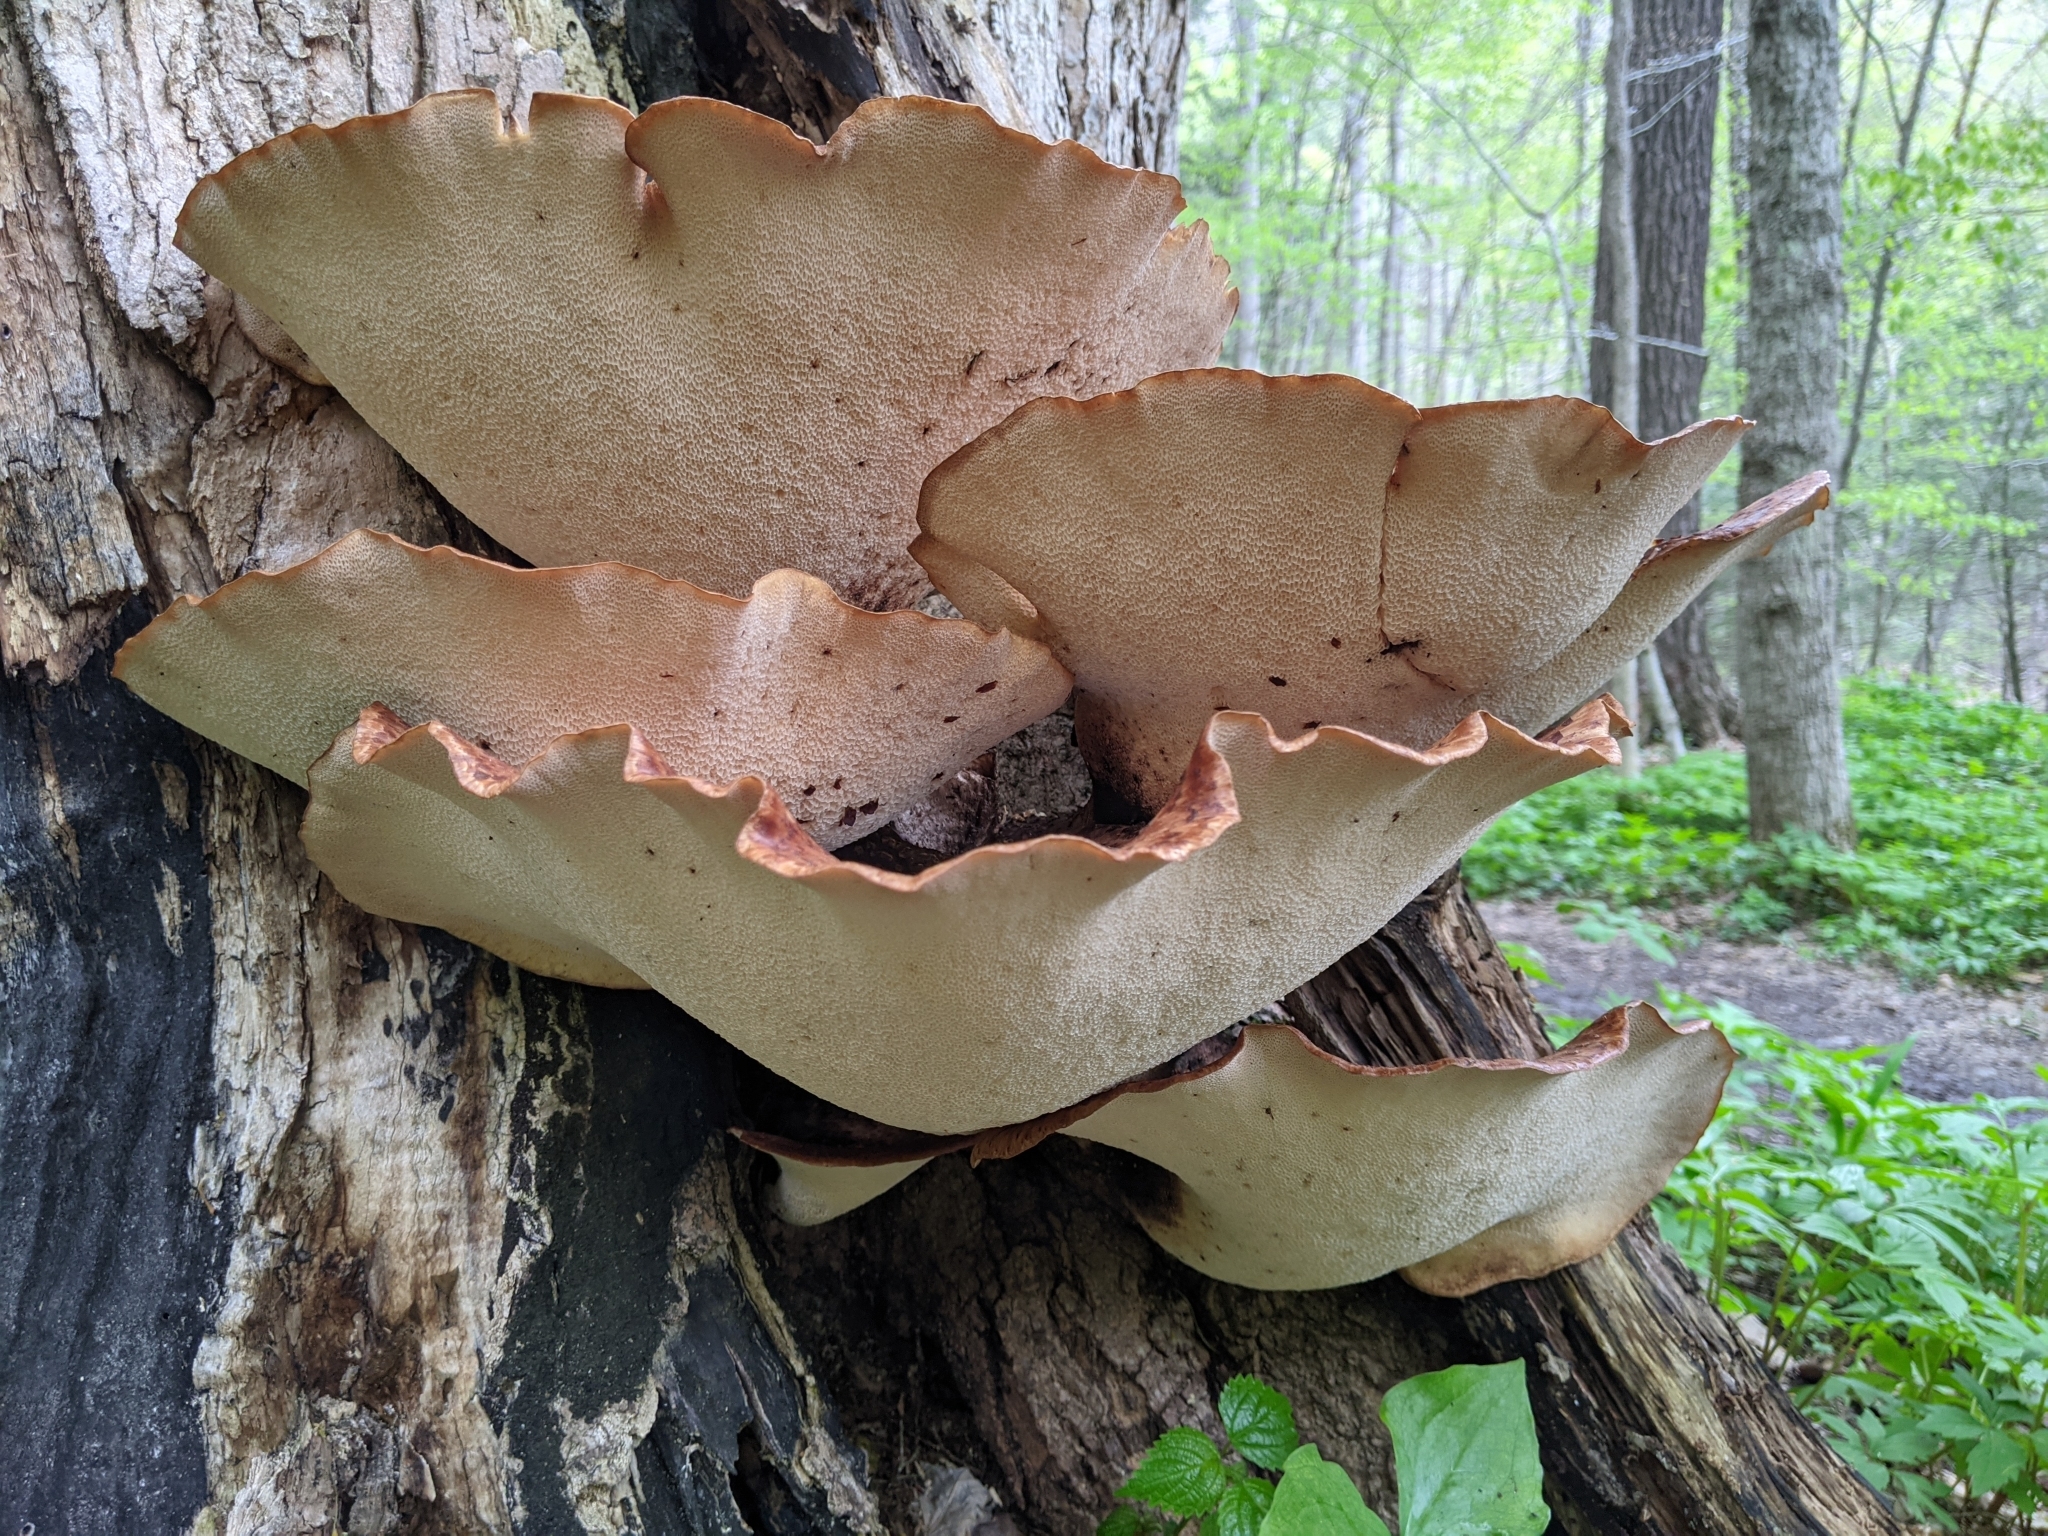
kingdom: Fungi
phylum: Basidiomycota
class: Agaricomycetes
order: Polyporales
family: Polyporaceae
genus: Cerioporus
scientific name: Cerioporus squamosus
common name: Dryad's saddle
